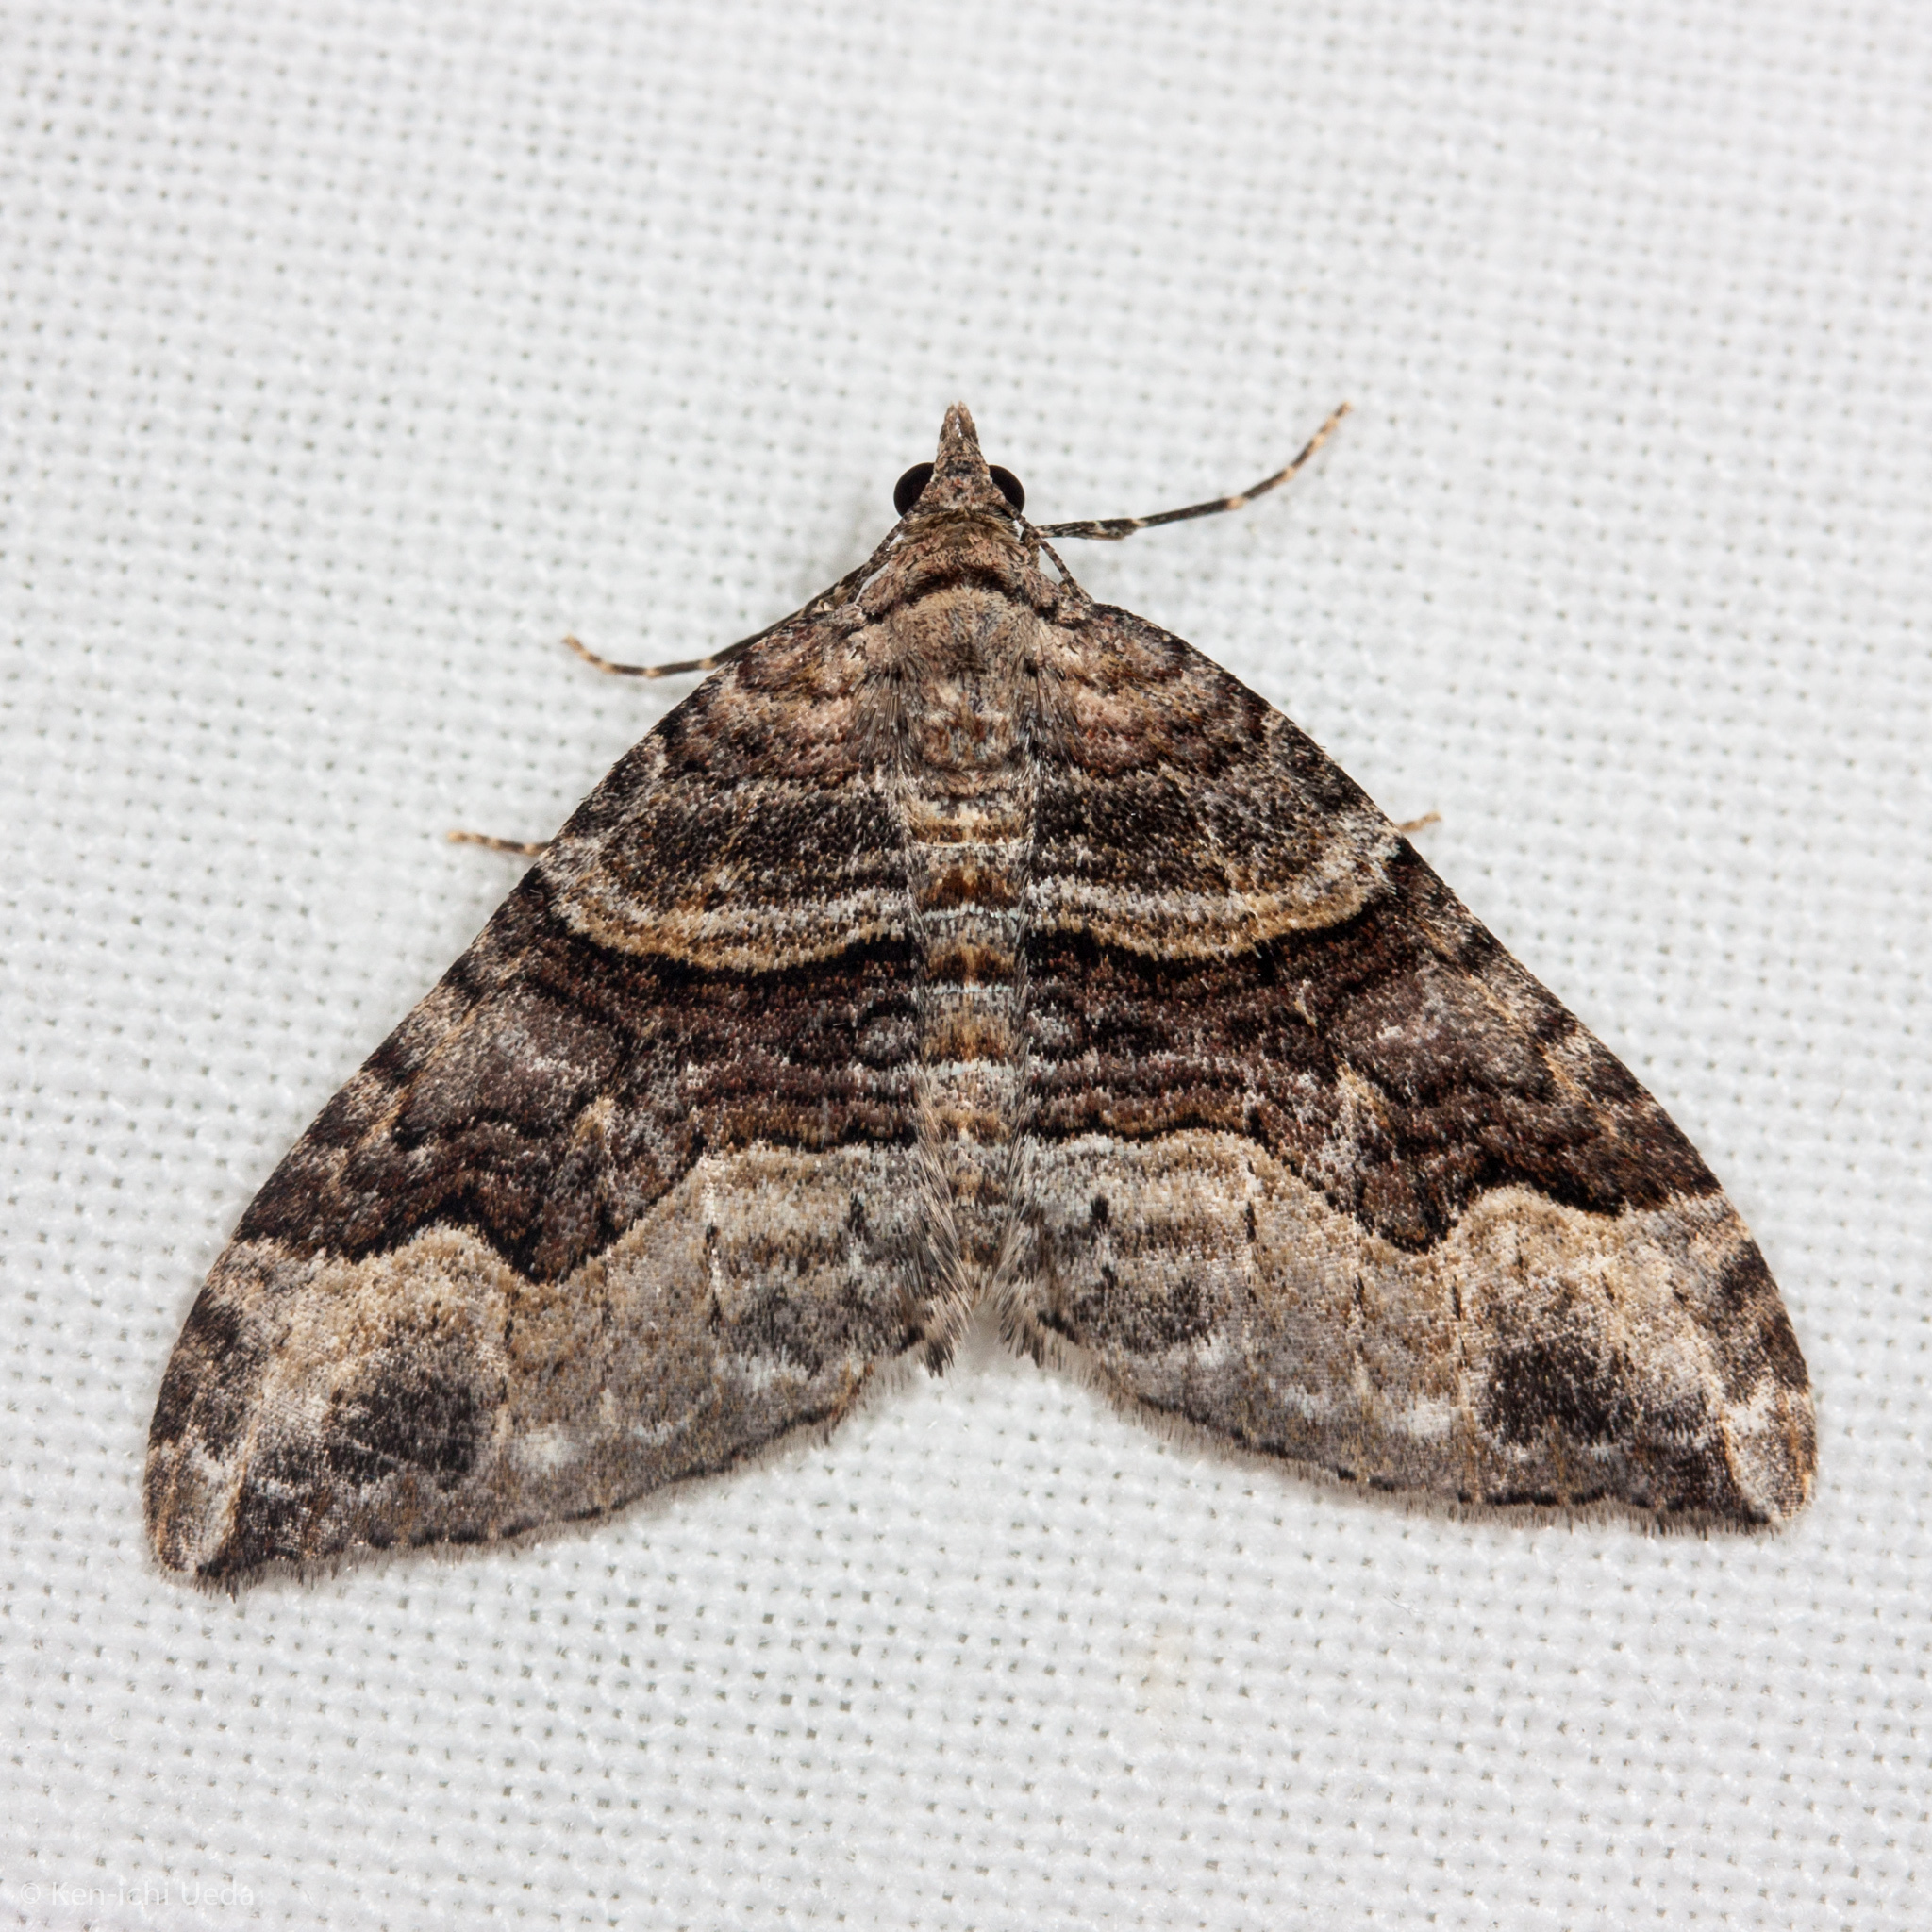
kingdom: Animalia
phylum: Arthropoda
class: Insecta
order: Lepidoptera
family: Geometridae
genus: Xanthorhoe
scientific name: Xanthorhoe defensaria
